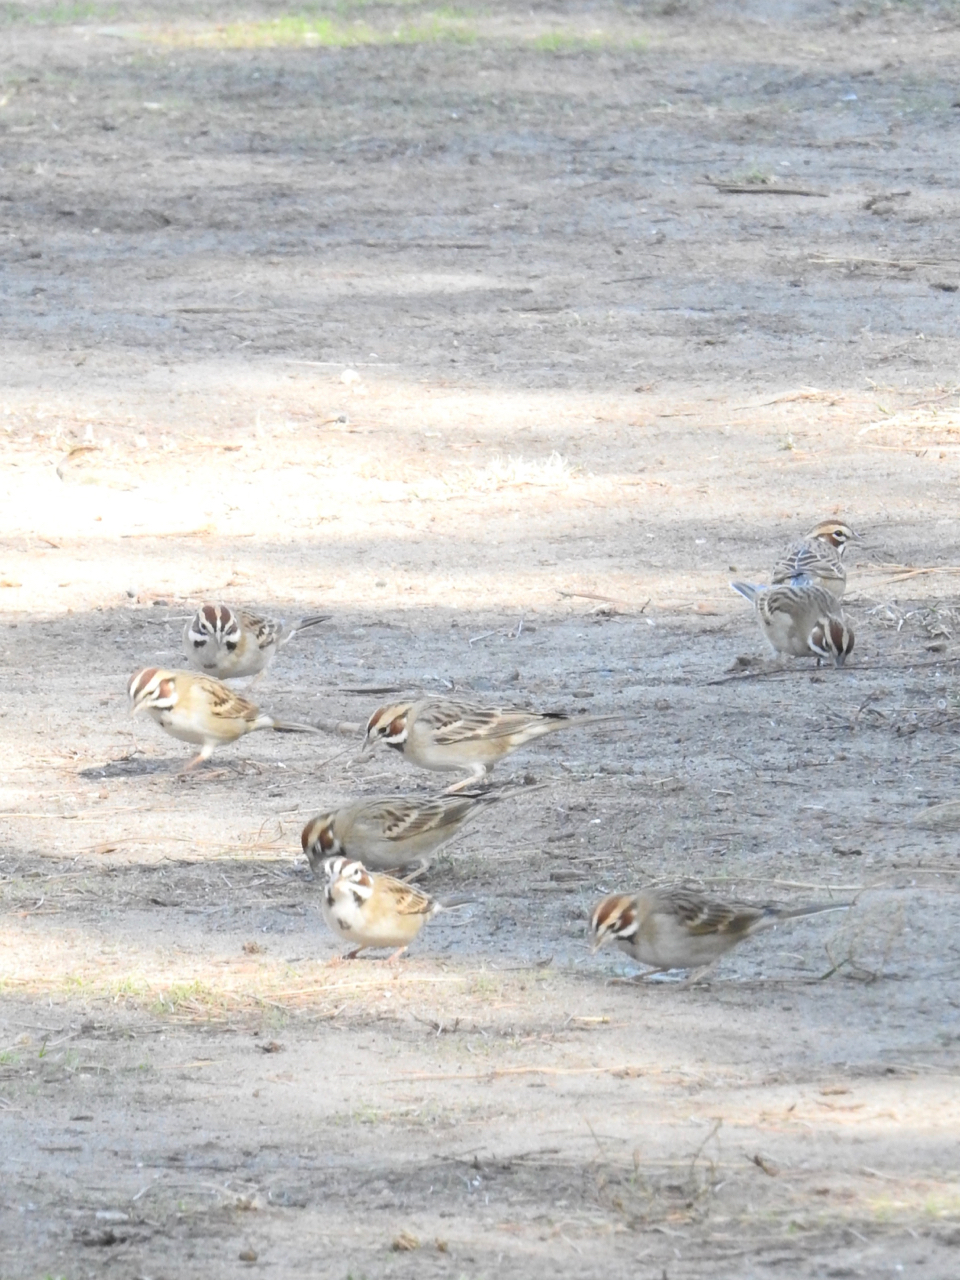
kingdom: Animalia
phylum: Chordata
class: Aves
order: Passeriformes
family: Passerellidae
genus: Chondestes
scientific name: Chondestes grammacus
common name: Lark sparrow
